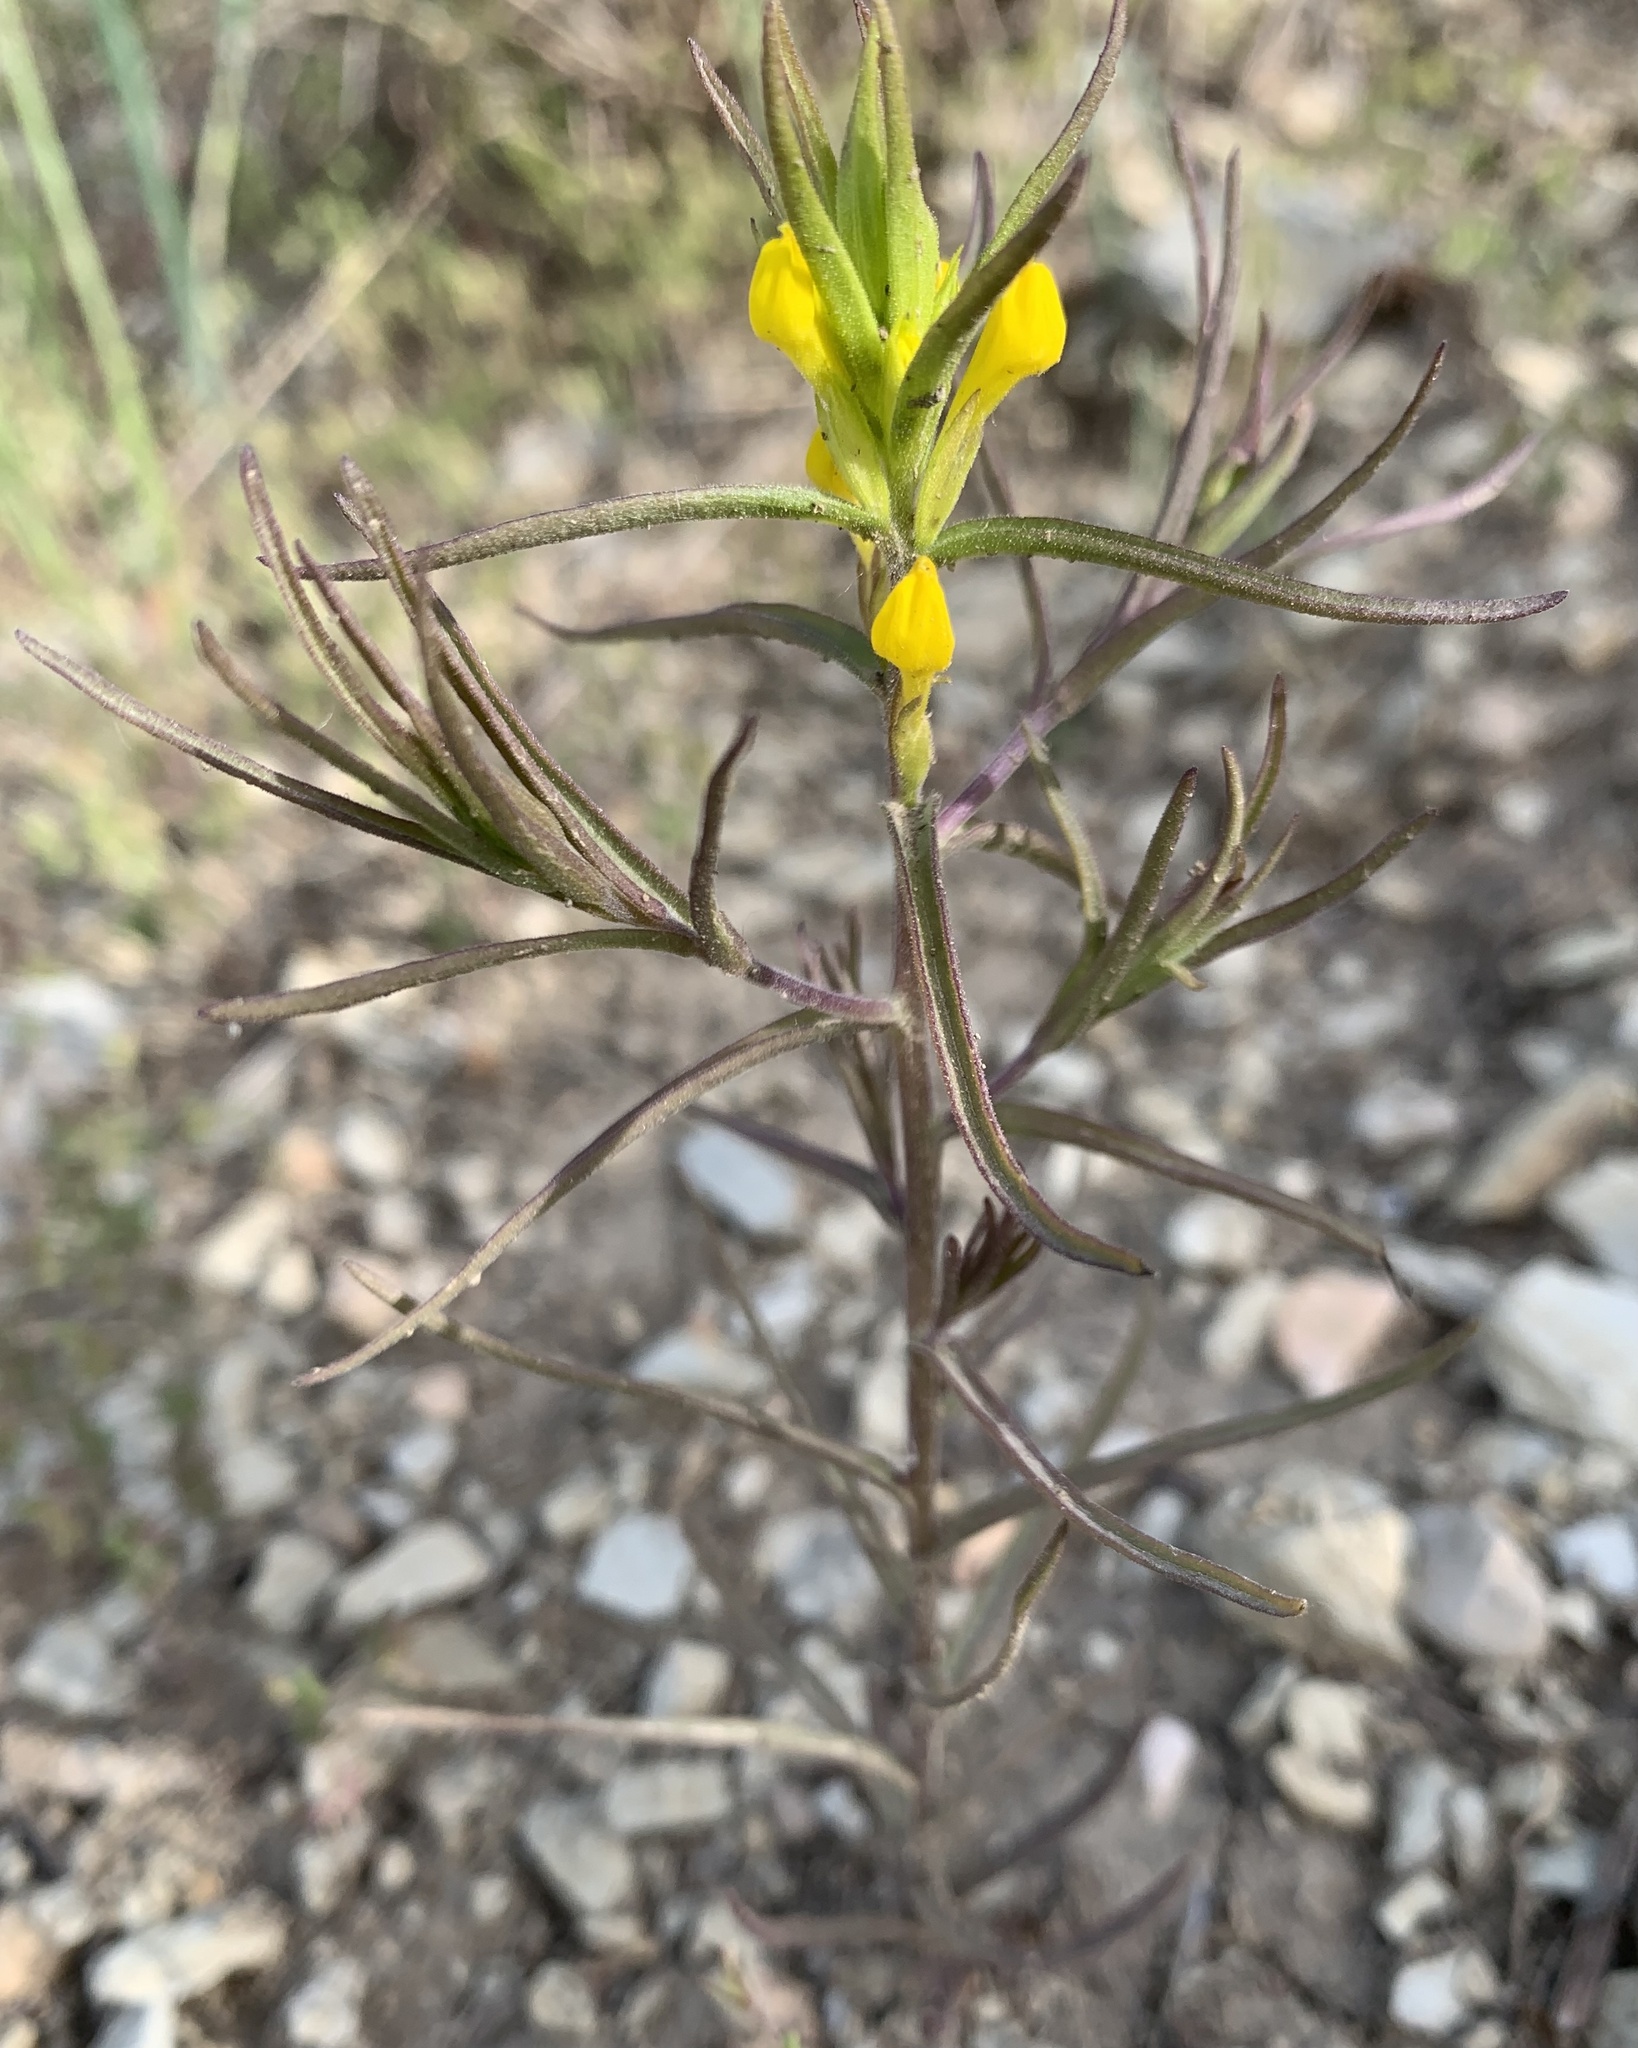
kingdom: Plantae
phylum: Tracheophyta
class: Magnoliopsida
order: Lamiales
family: Orobanchaceae
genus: Orthocarpus
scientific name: Orthocarpus tolmiei
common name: Tolmie's owl-clover
